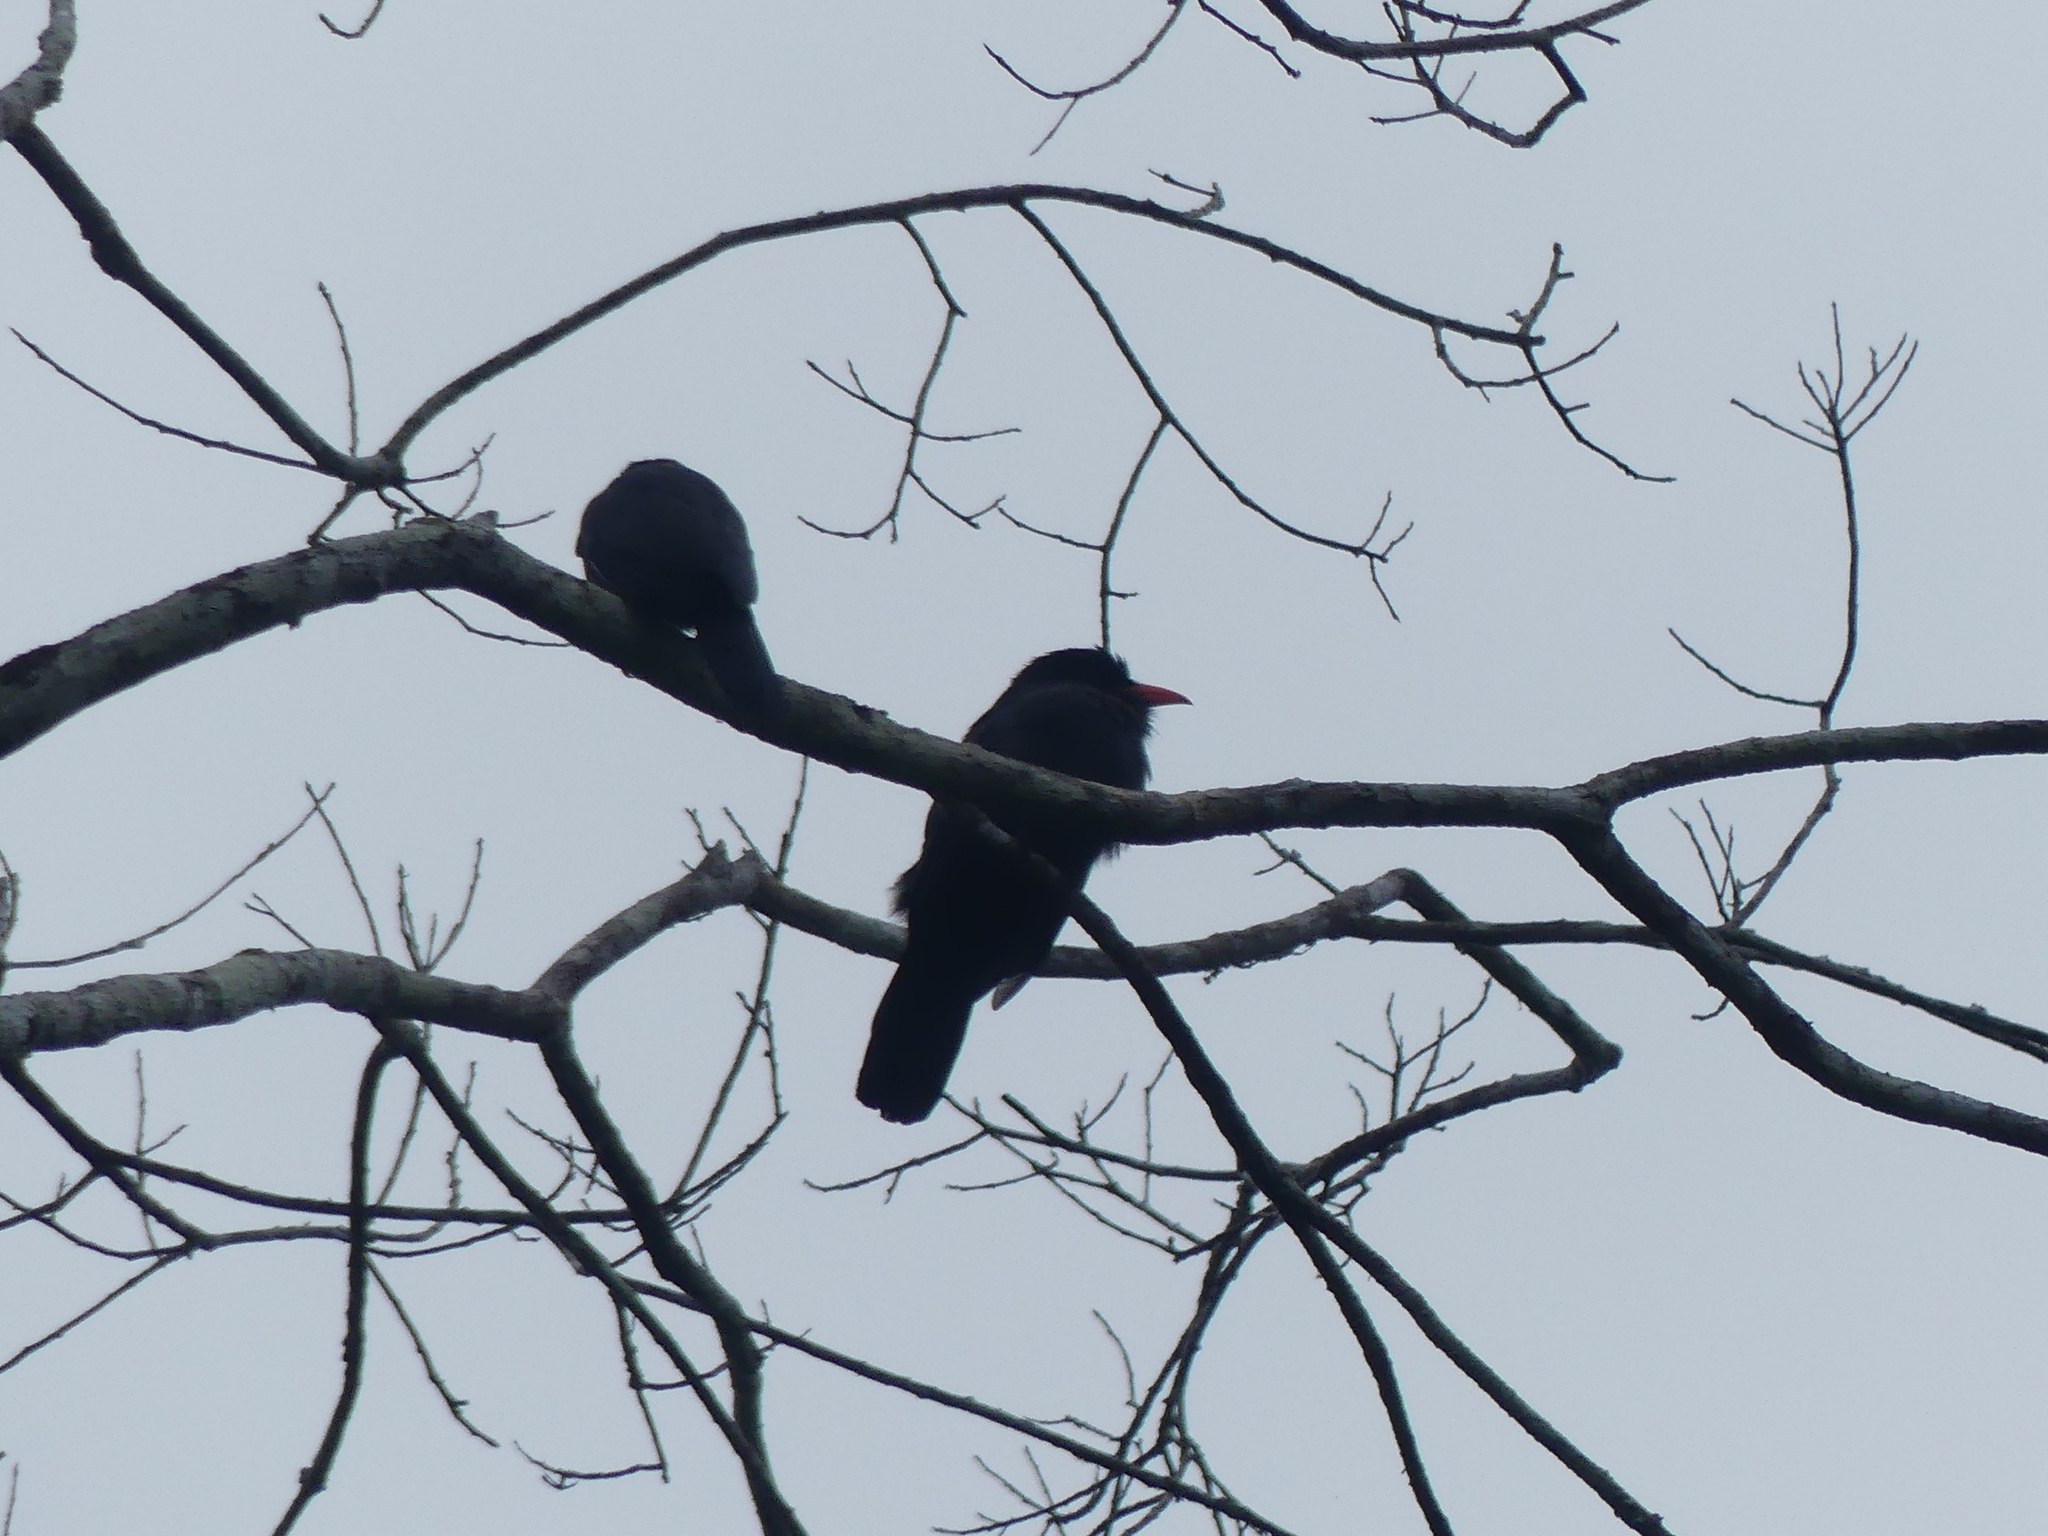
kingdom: Animalia
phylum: Chordata
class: Aves
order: Piciformes
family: Bucconidae
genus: Monasa
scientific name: Monasa nigrifrons
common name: Black-fronted nunbird
